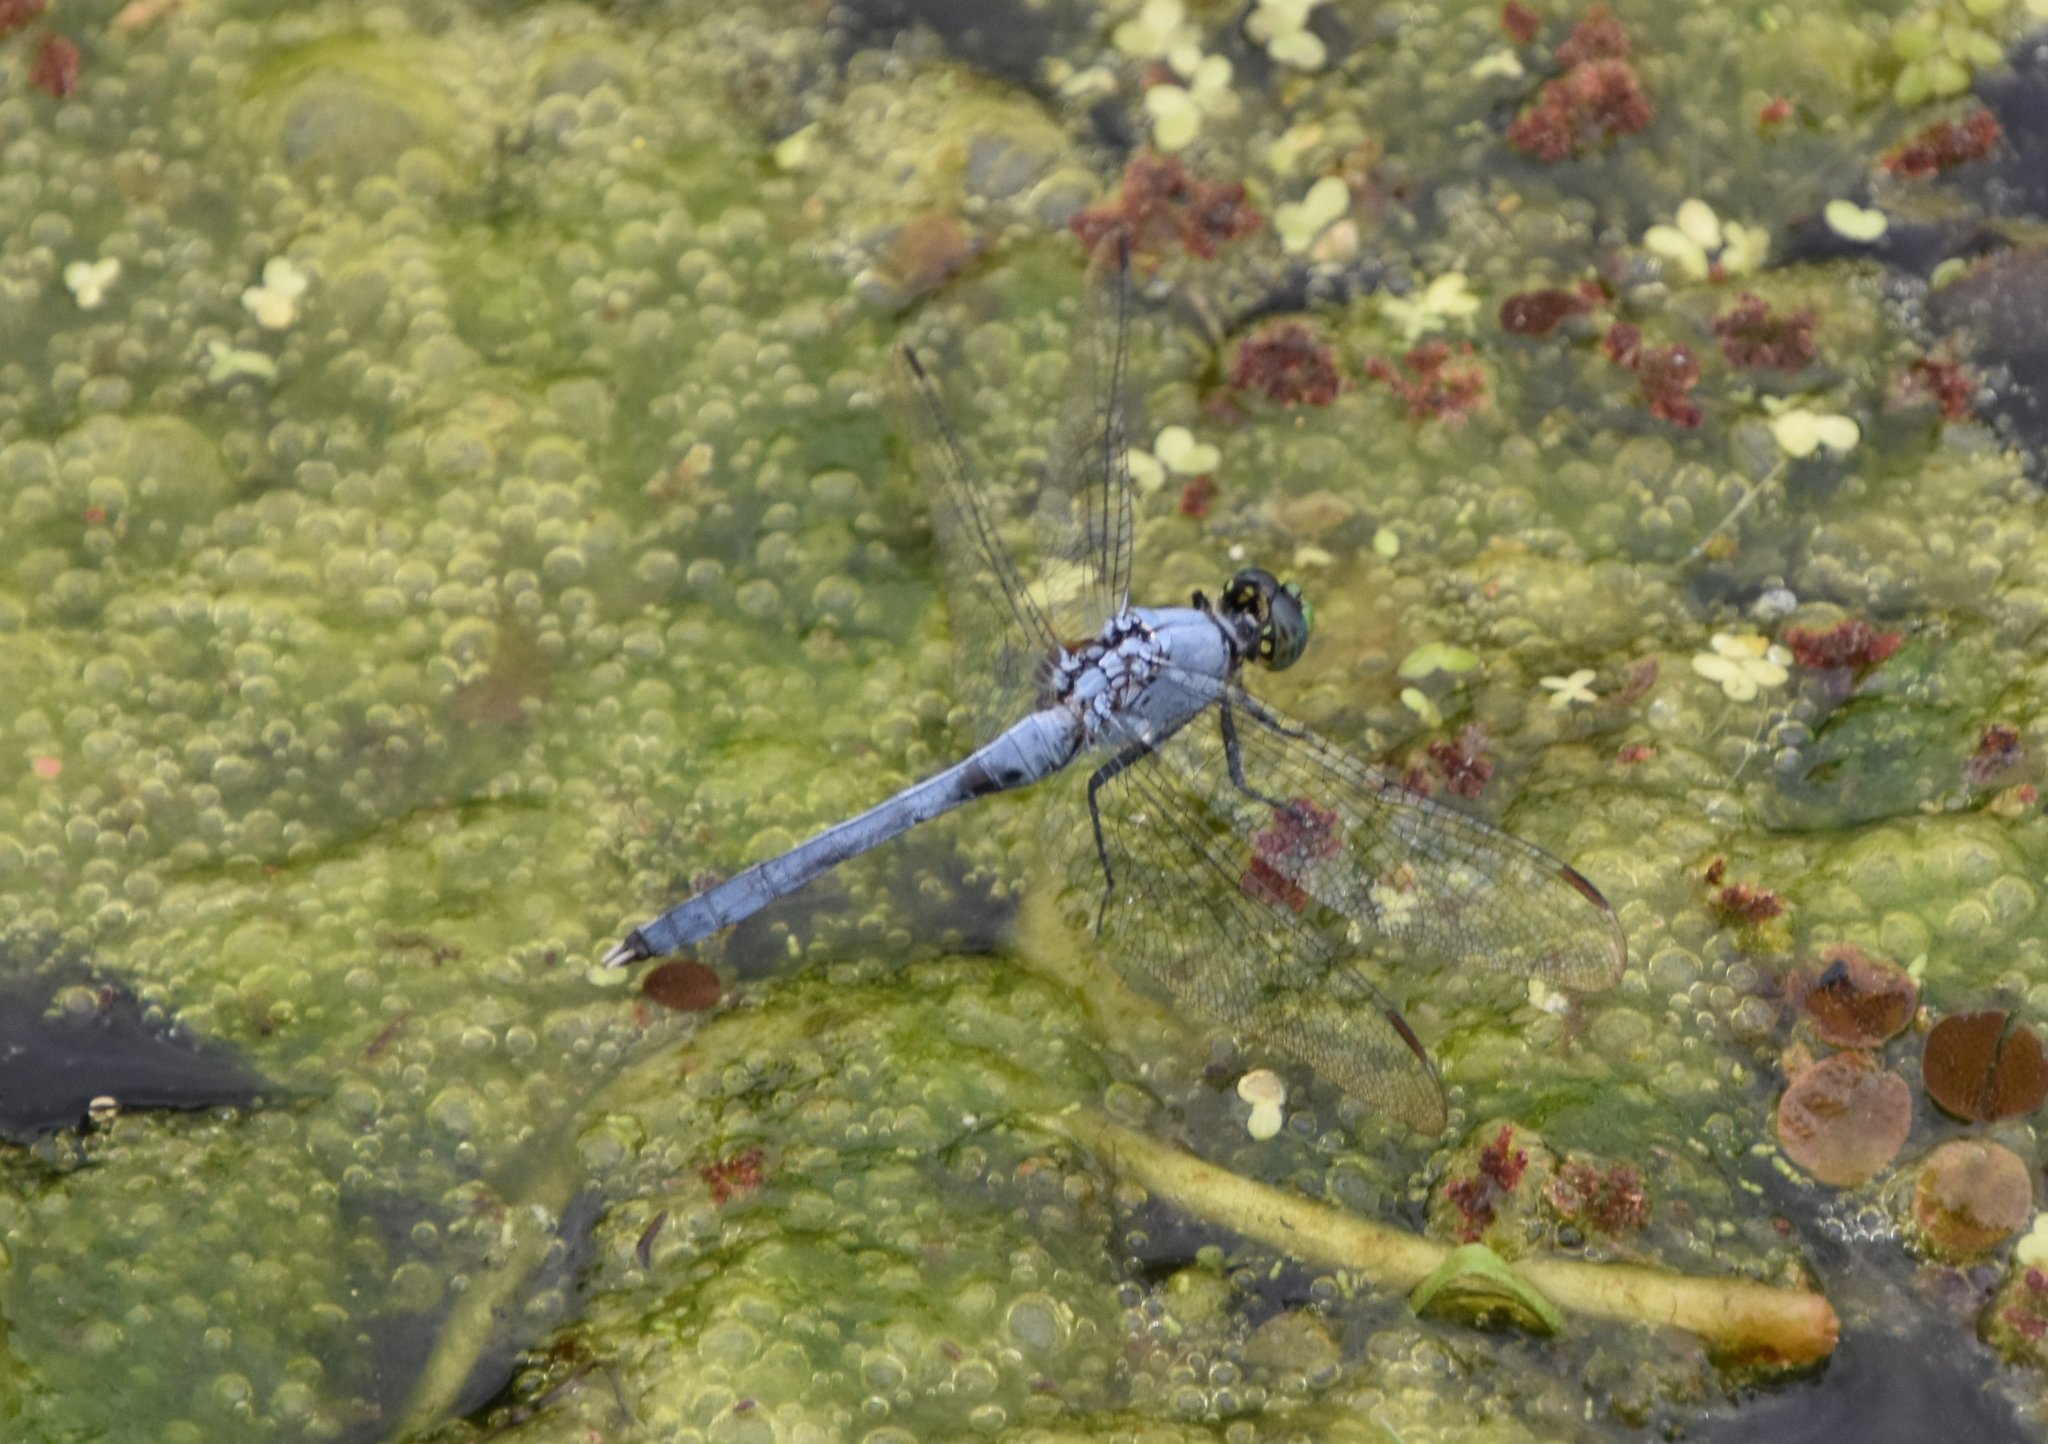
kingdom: Animalia
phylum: Arthropoda
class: Insecta
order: Odonata
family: Libellulidae
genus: Erythemis
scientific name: Erythemis simplicicollis
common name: Eastern pondhawk
